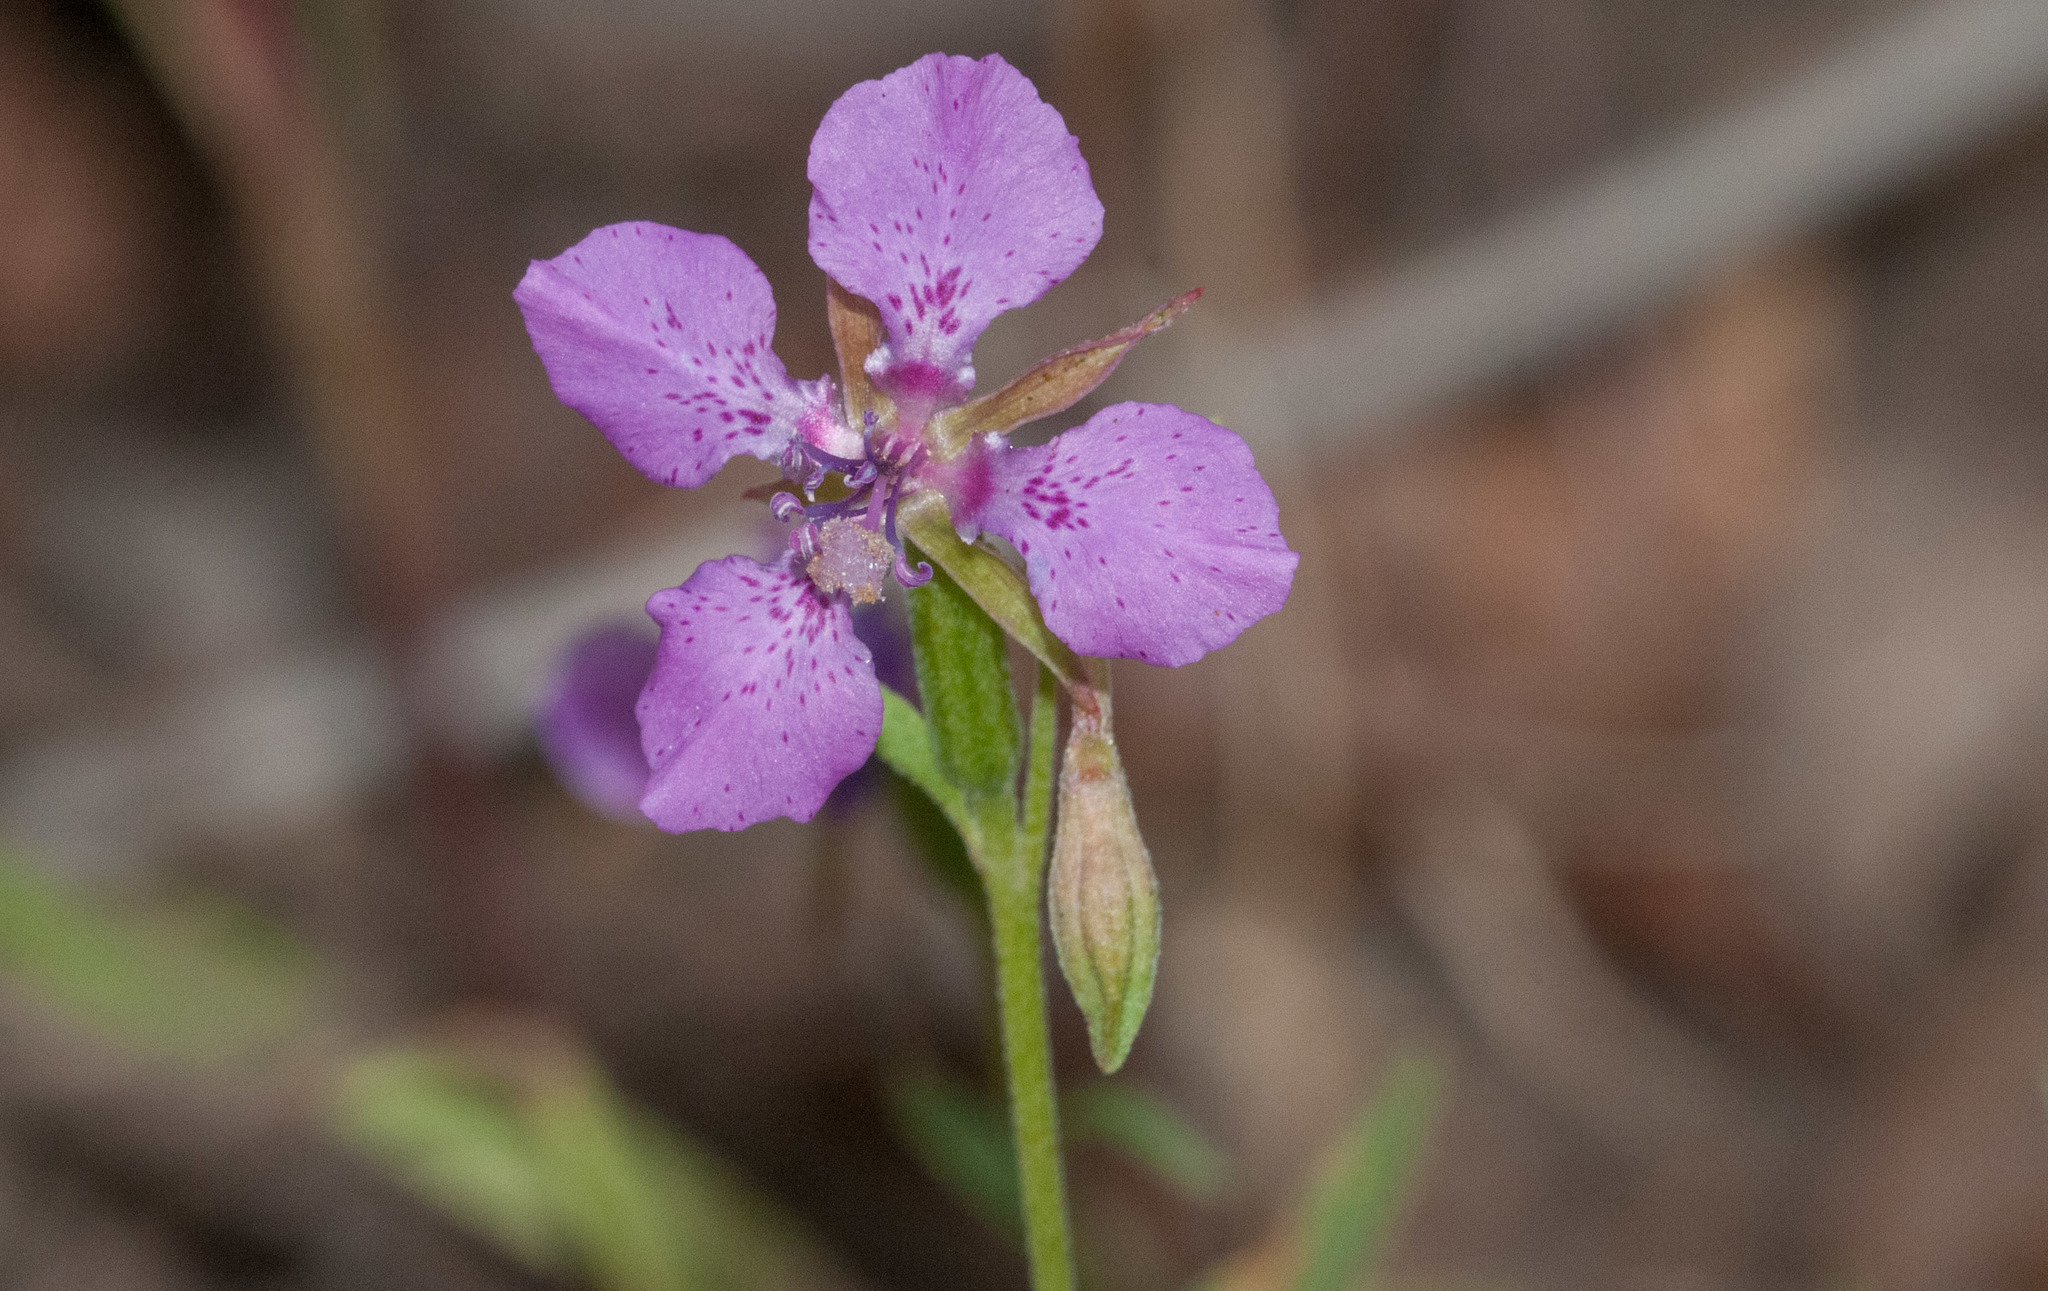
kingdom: Plantae
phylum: Tracheophyta
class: Magnoliopsida
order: Myrtales
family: Onagraceae
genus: Clarkia
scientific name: Clarkia rhomboidea
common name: Broadleaf clarkia
